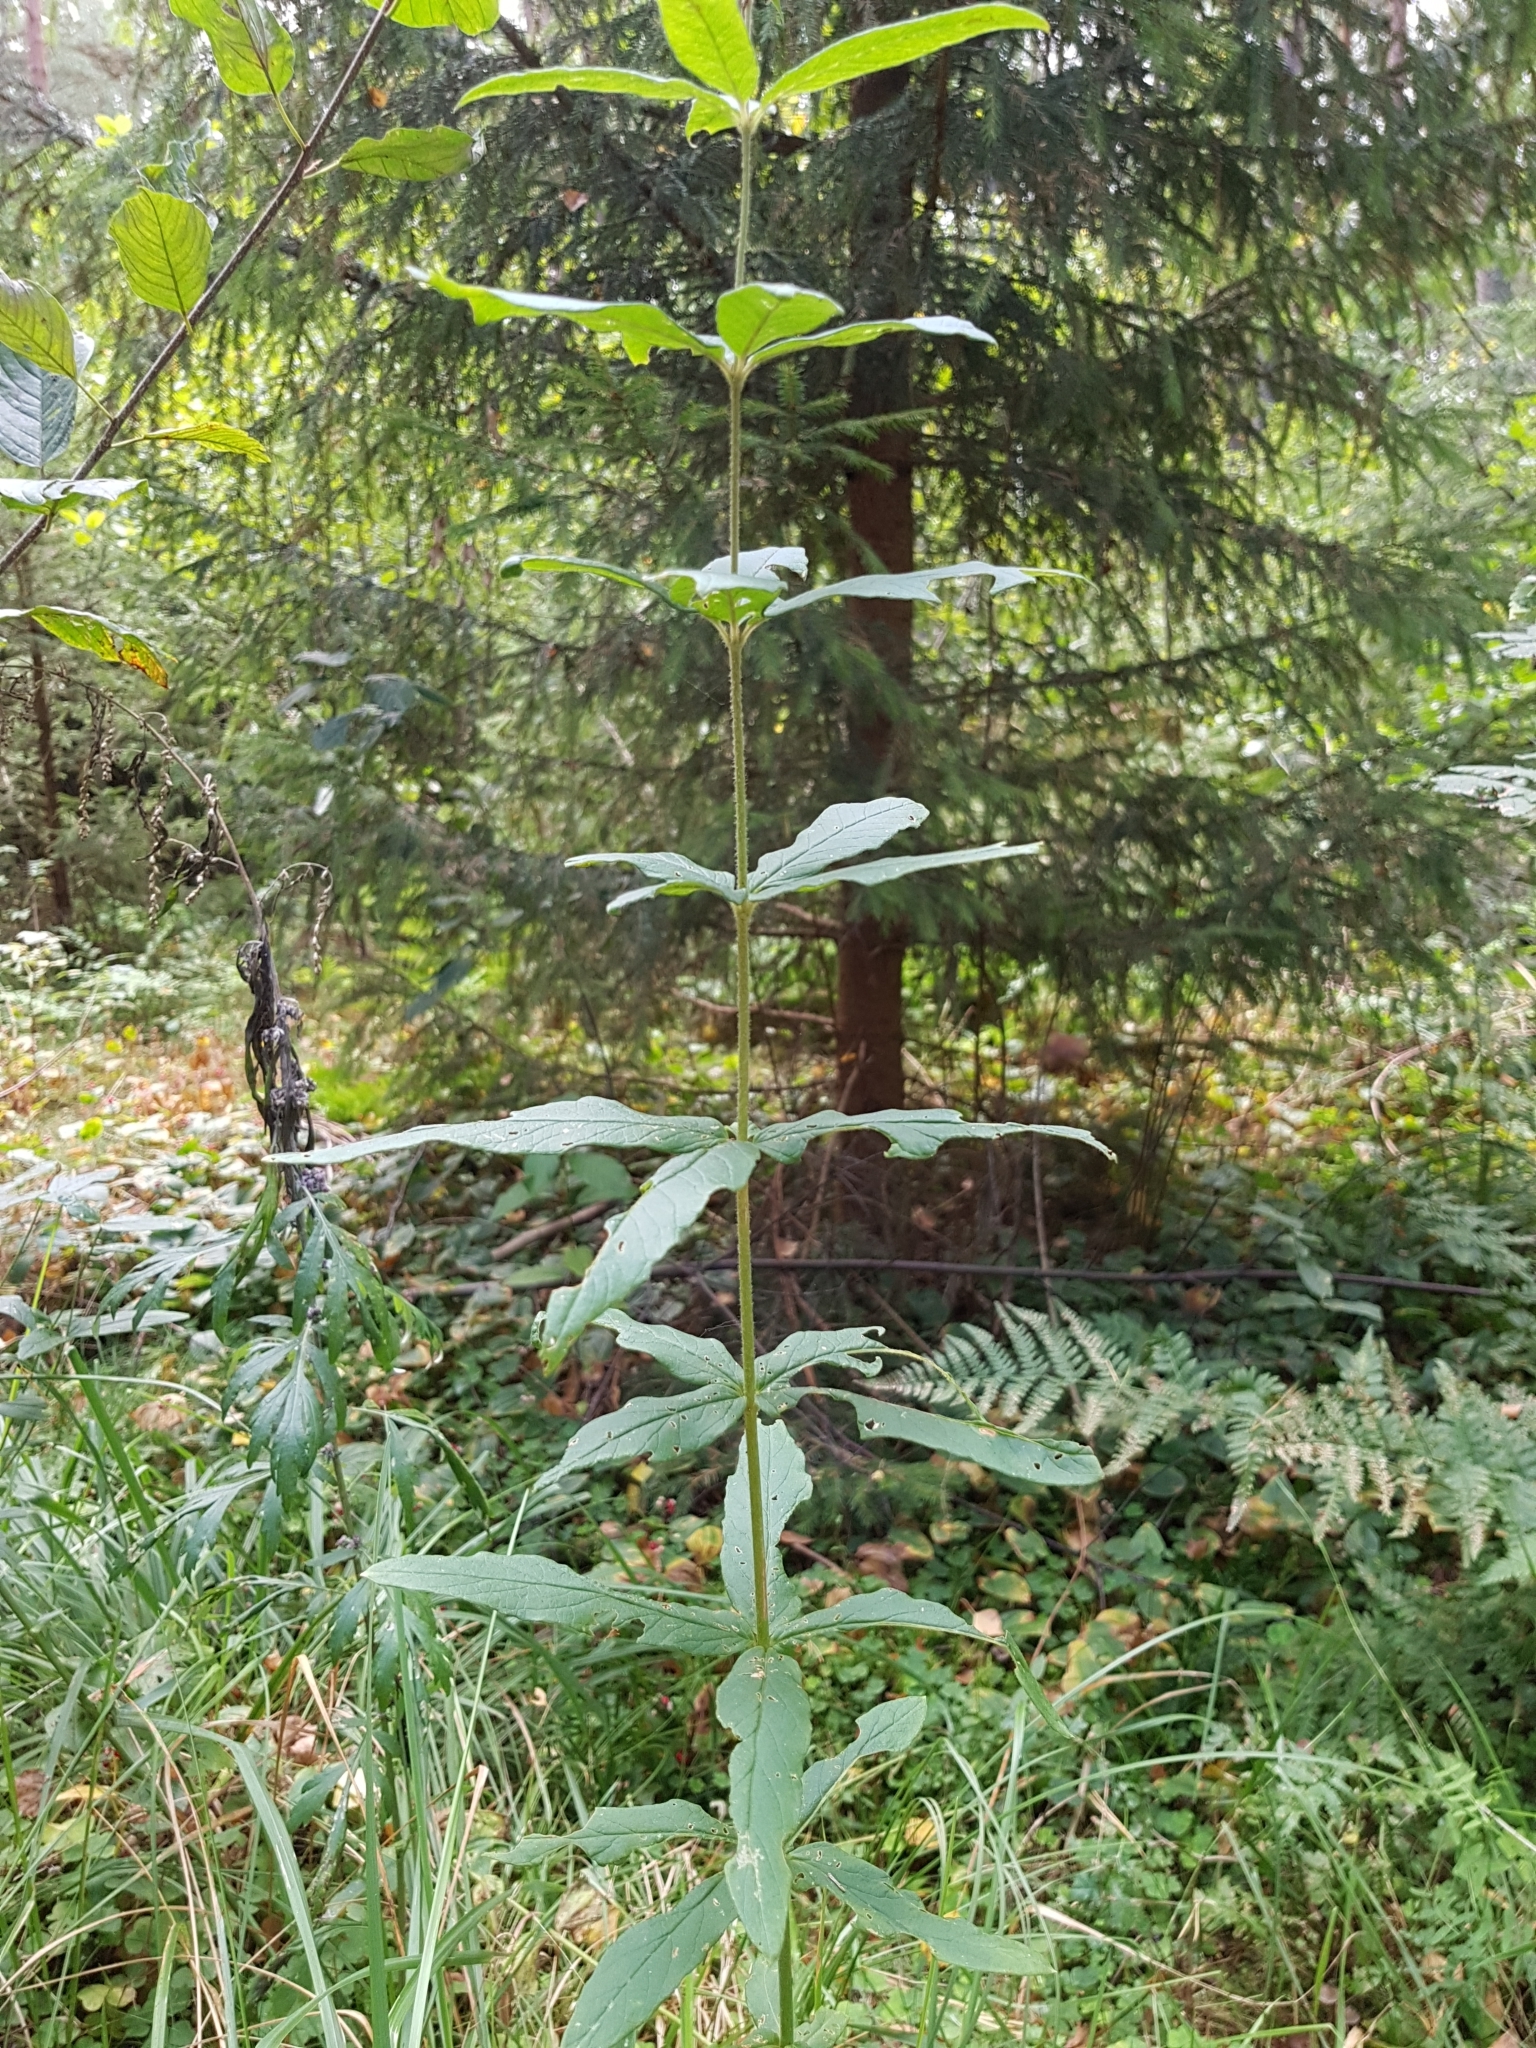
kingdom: Plantae
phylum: Tracheophyta
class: Magnoliopsida
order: Ericales
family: Primulaceae
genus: Lysimachia
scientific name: Lysimachia vulgaris
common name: Yellow loosestrife
